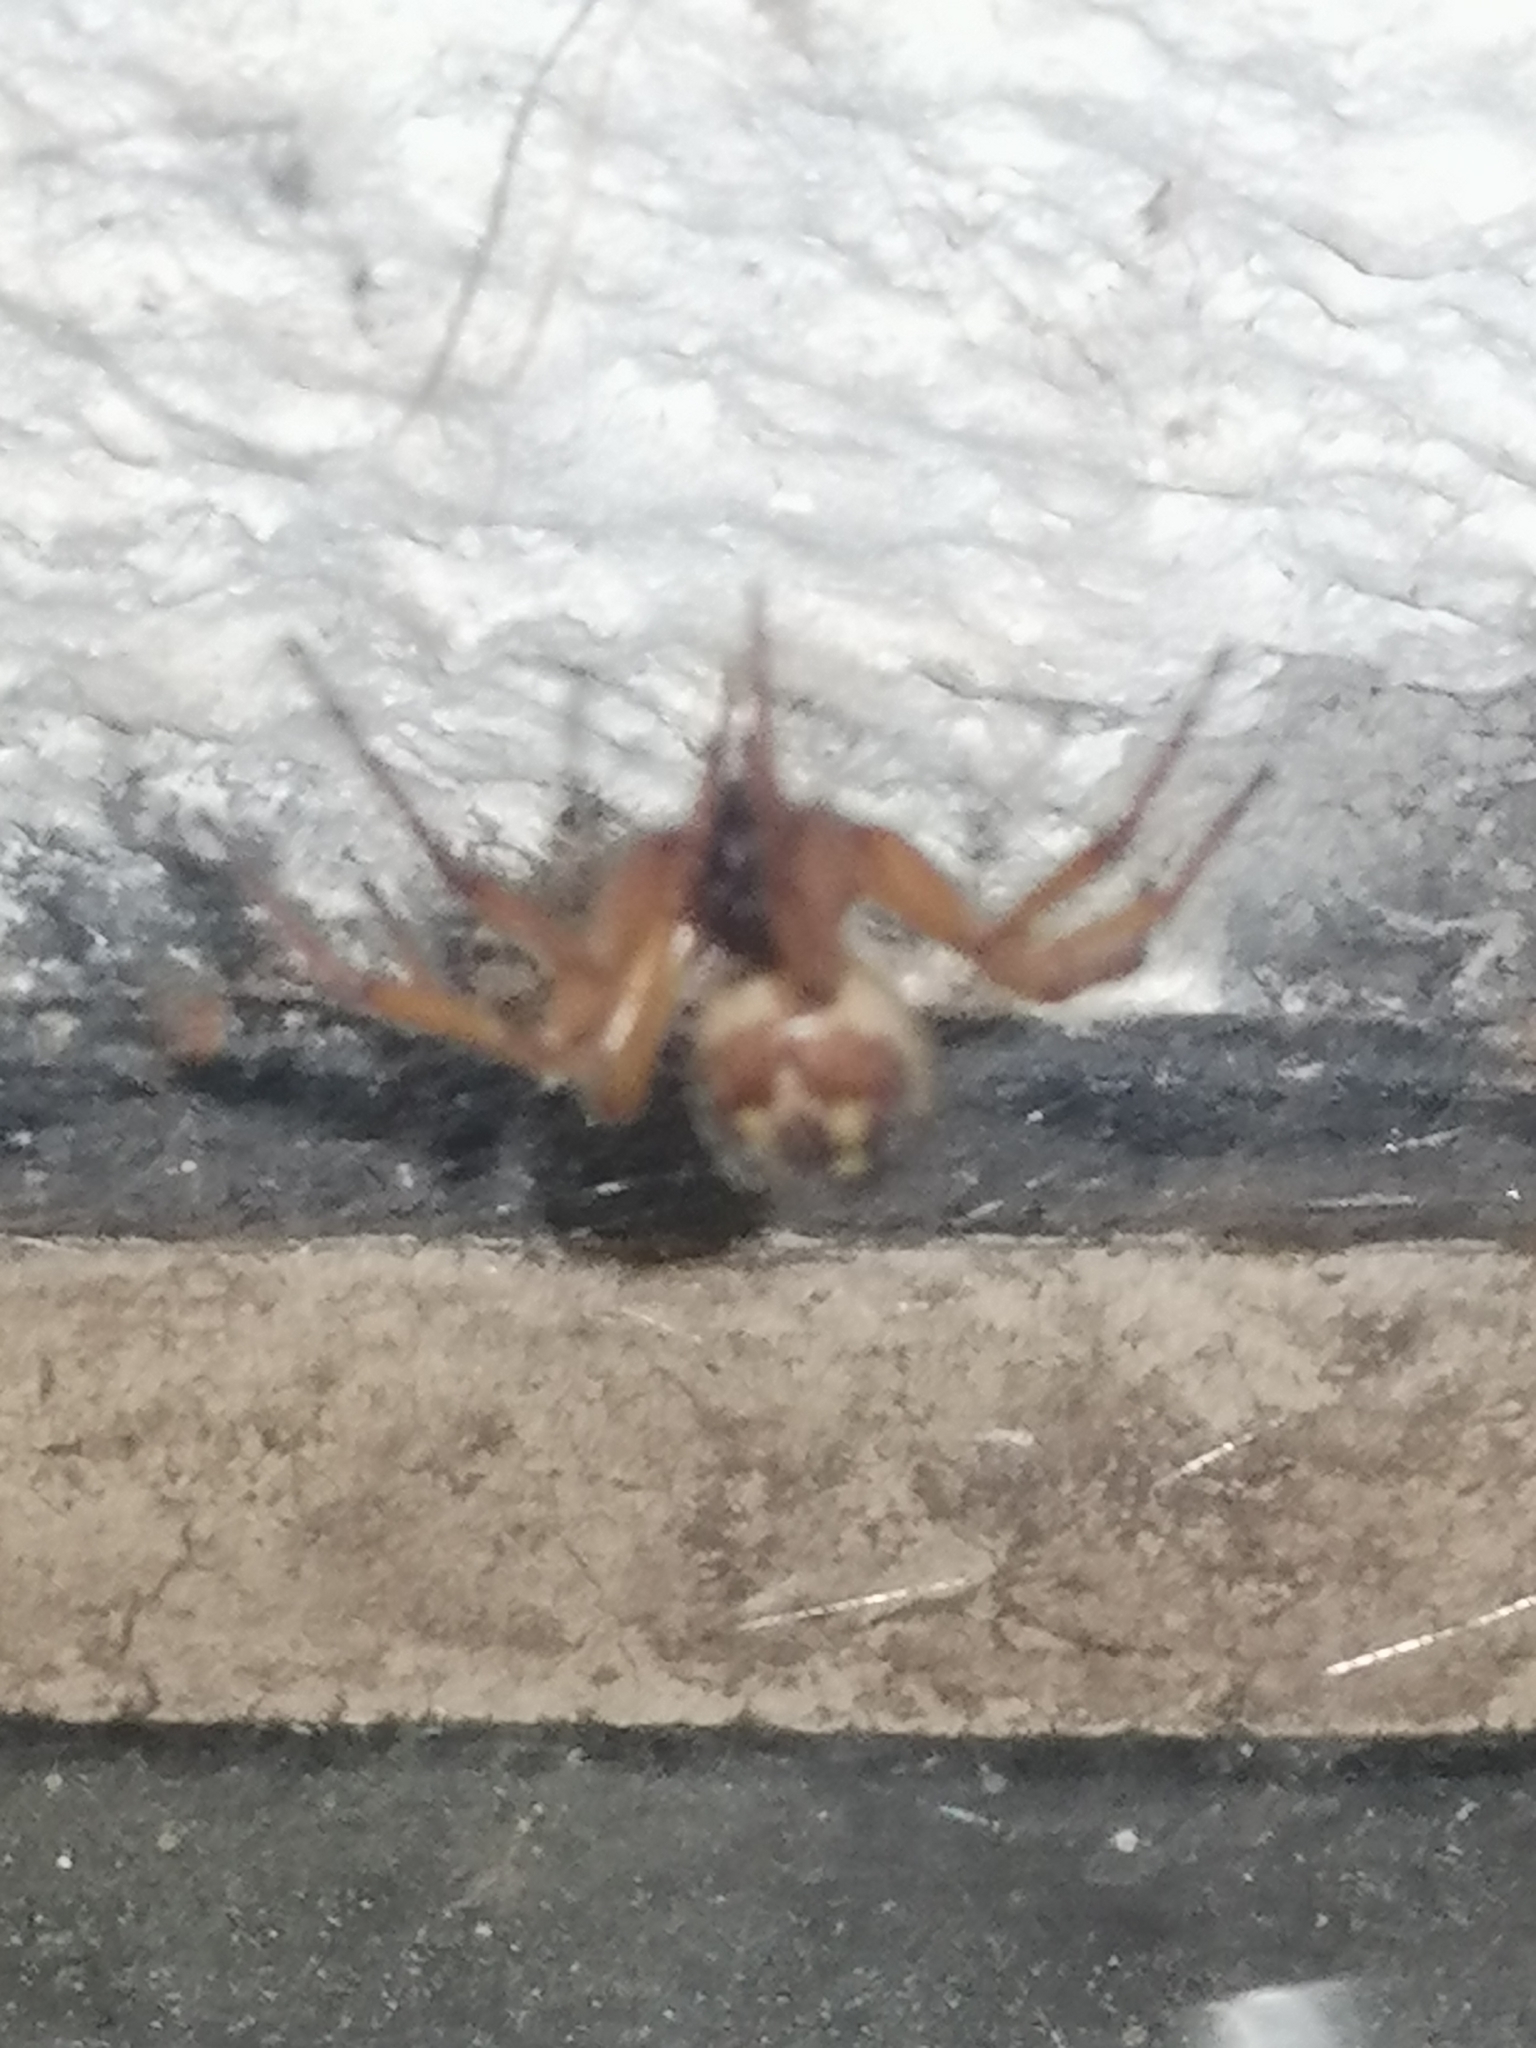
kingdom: Animalia
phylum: Arthropoda
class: Arachnida
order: Araneae
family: Theridiidae
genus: Steatoda
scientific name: Steatoda nobilis
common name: Cobweb weaver
